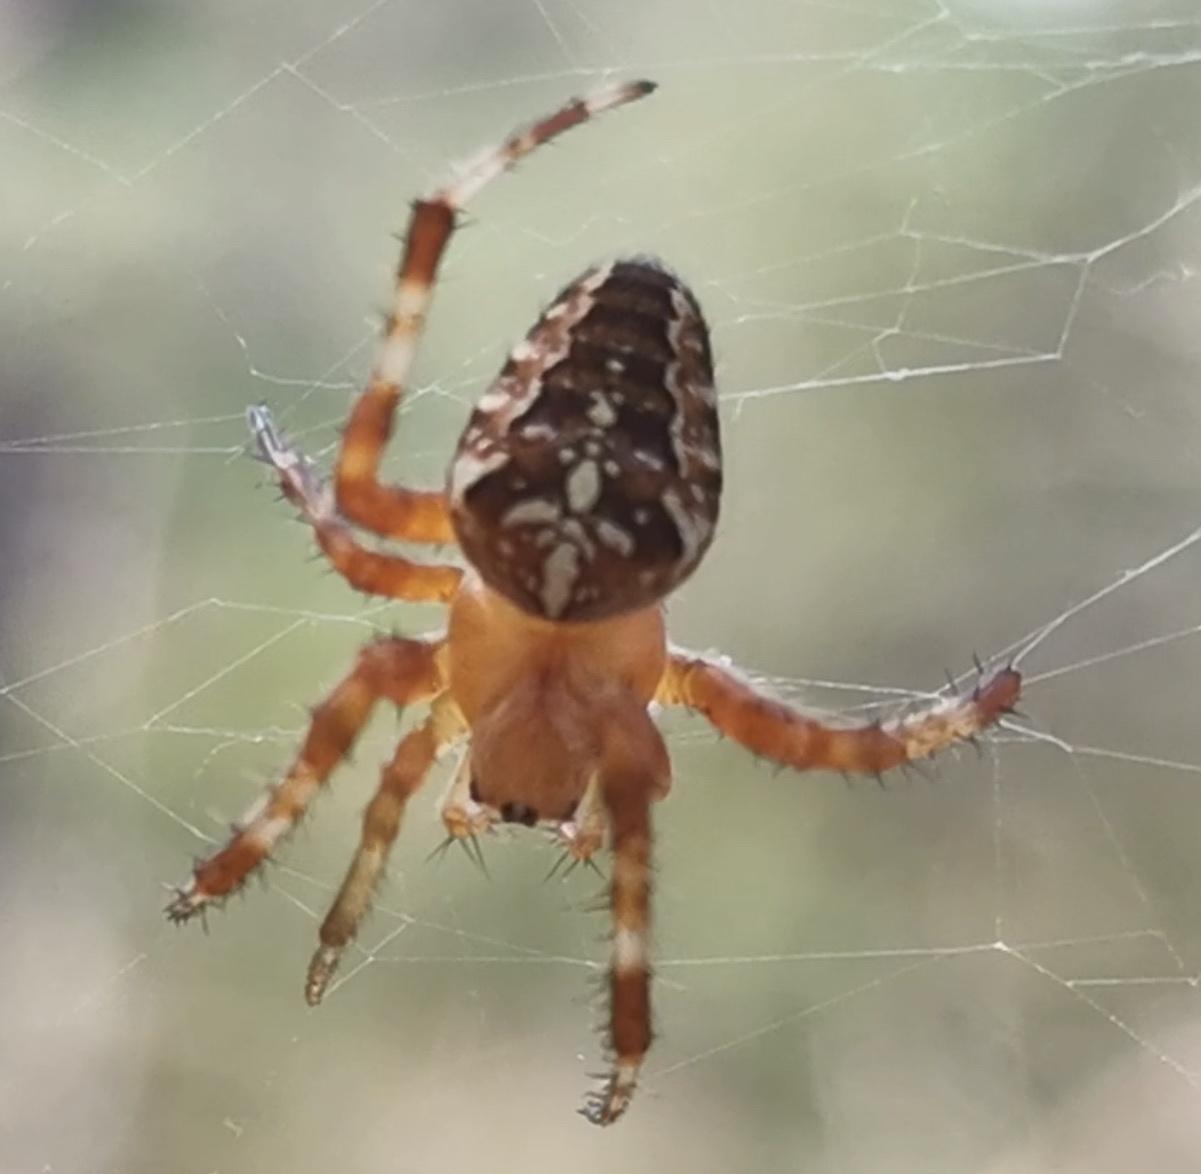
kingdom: Animalia
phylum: Arthropoda
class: Arachnida
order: Araneae
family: Araneidae
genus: Araneus
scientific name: Araneus diadematus
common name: Cross orbweaver
